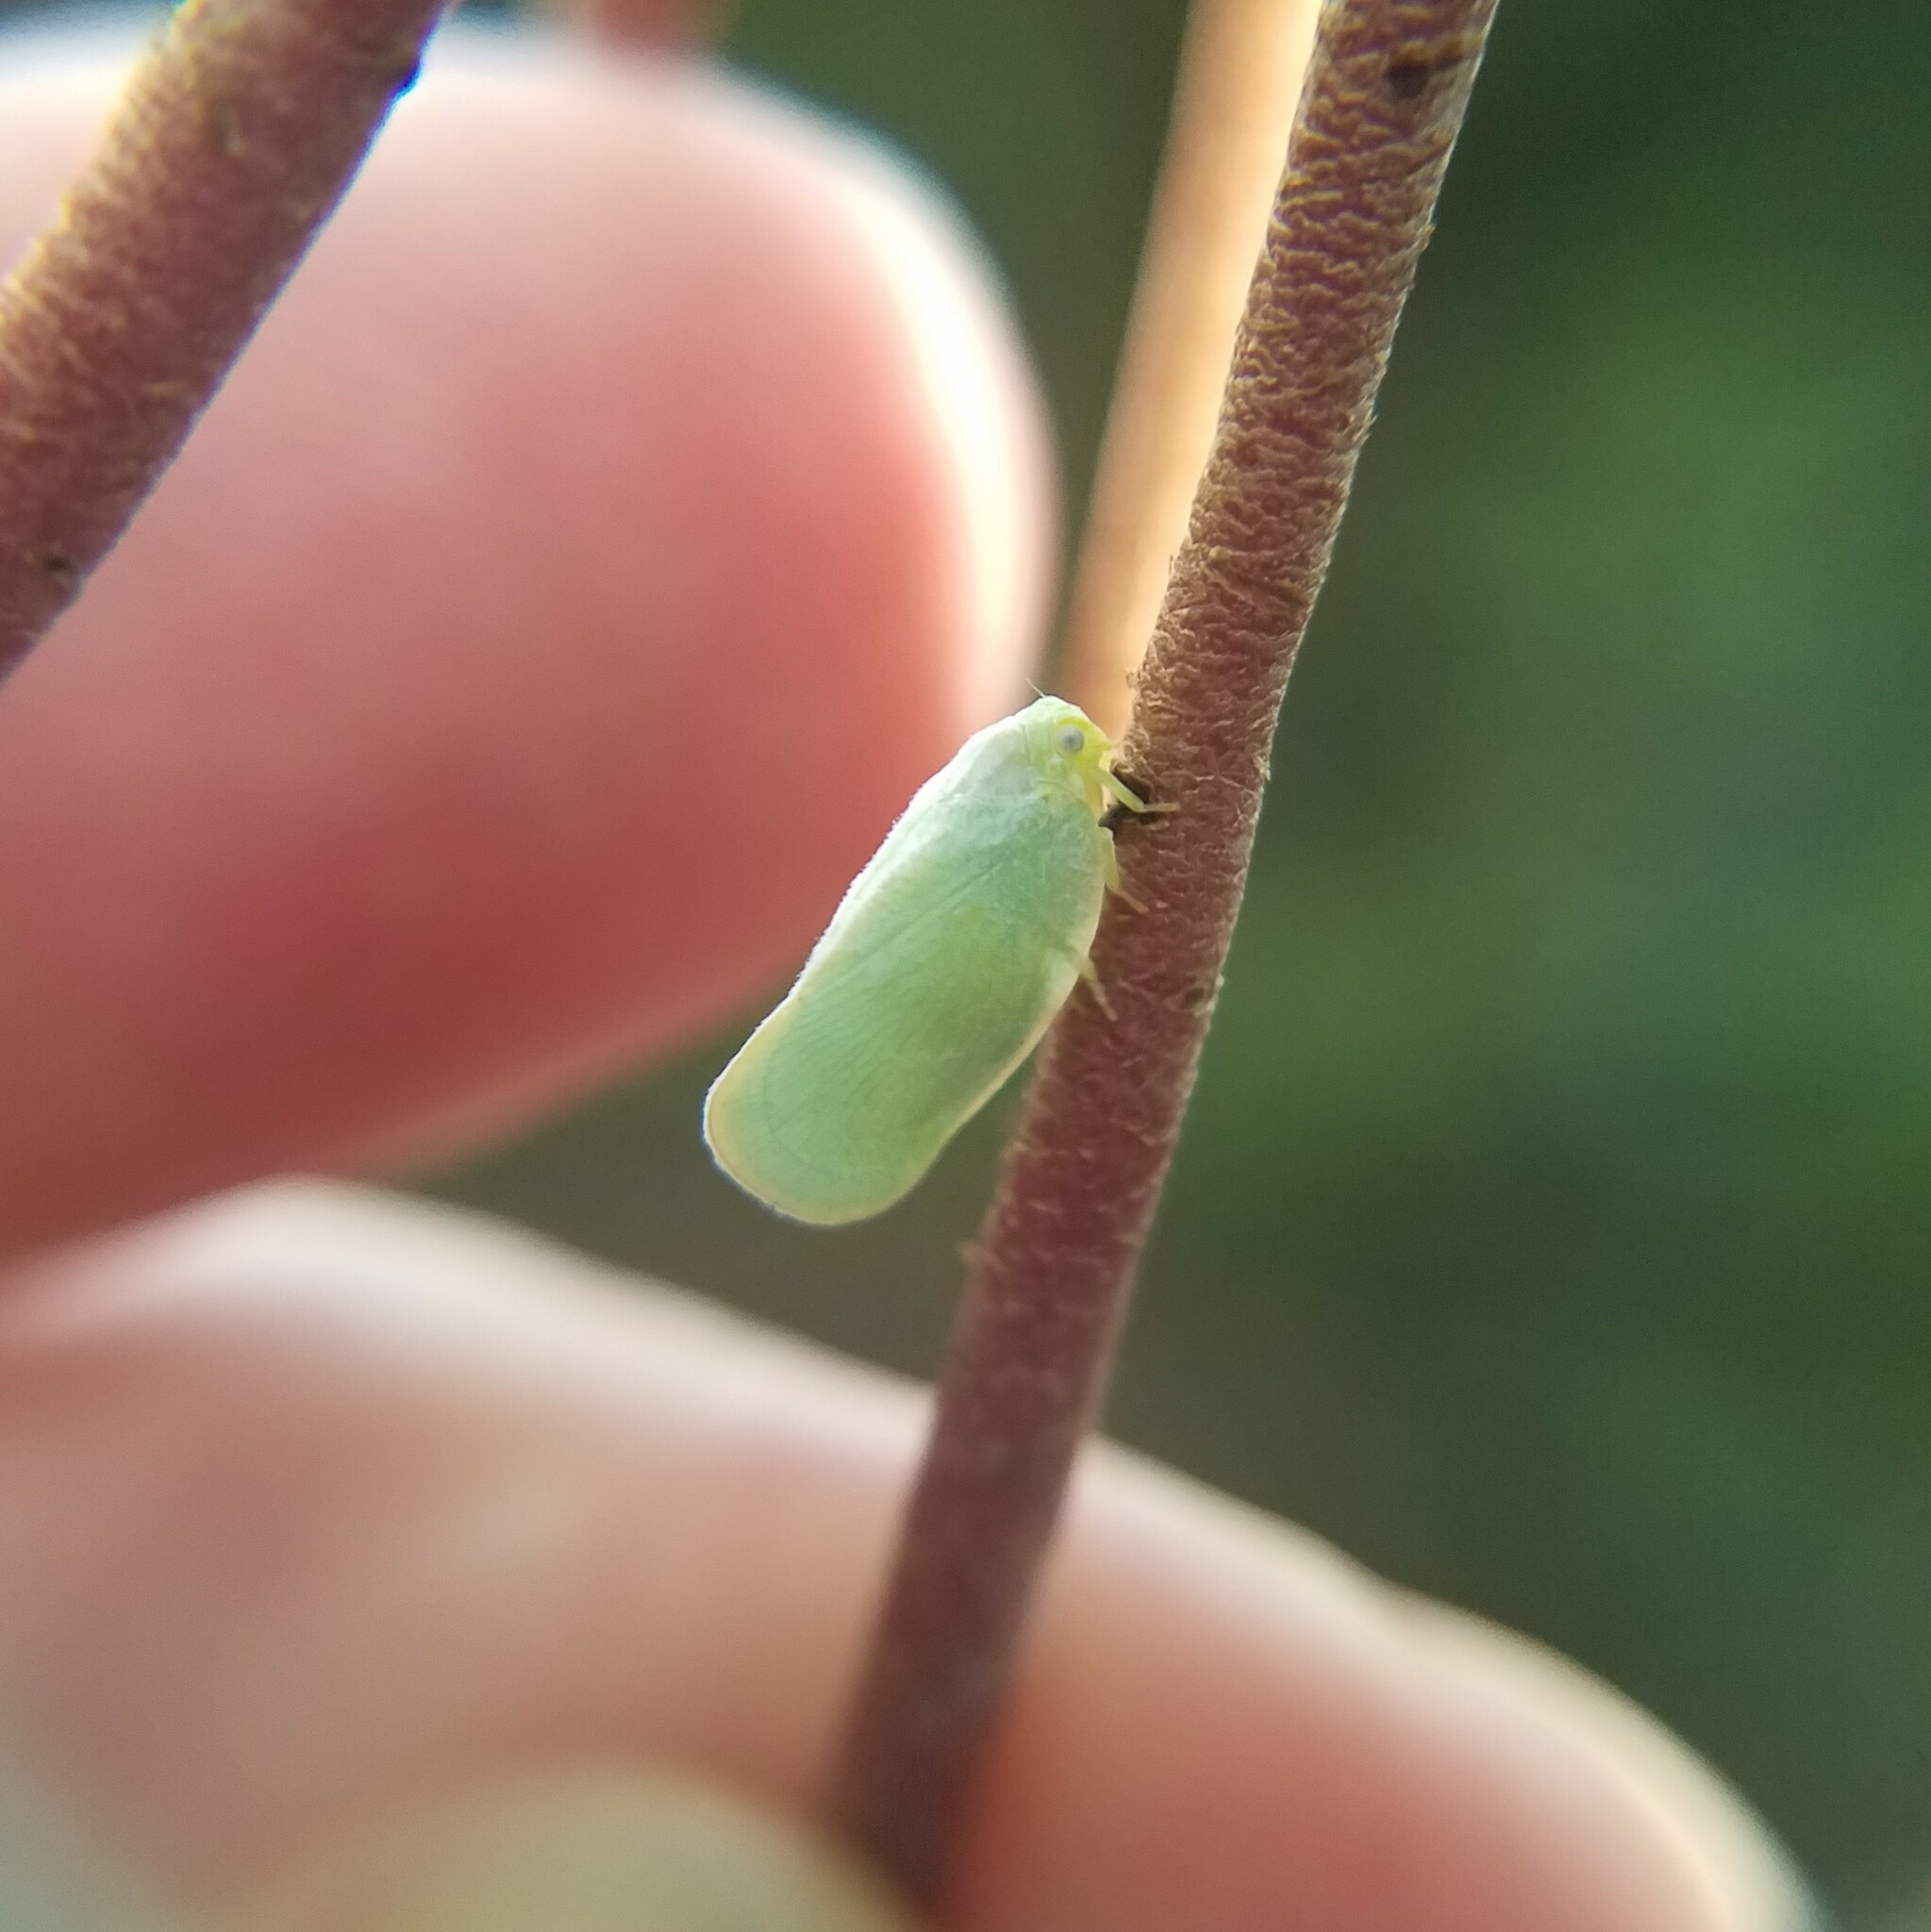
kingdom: Animalia
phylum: Arthropoda
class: Insecta
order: Hemiptera
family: Flatidae
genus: Ormenoides
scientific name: Ormenoides venusta
